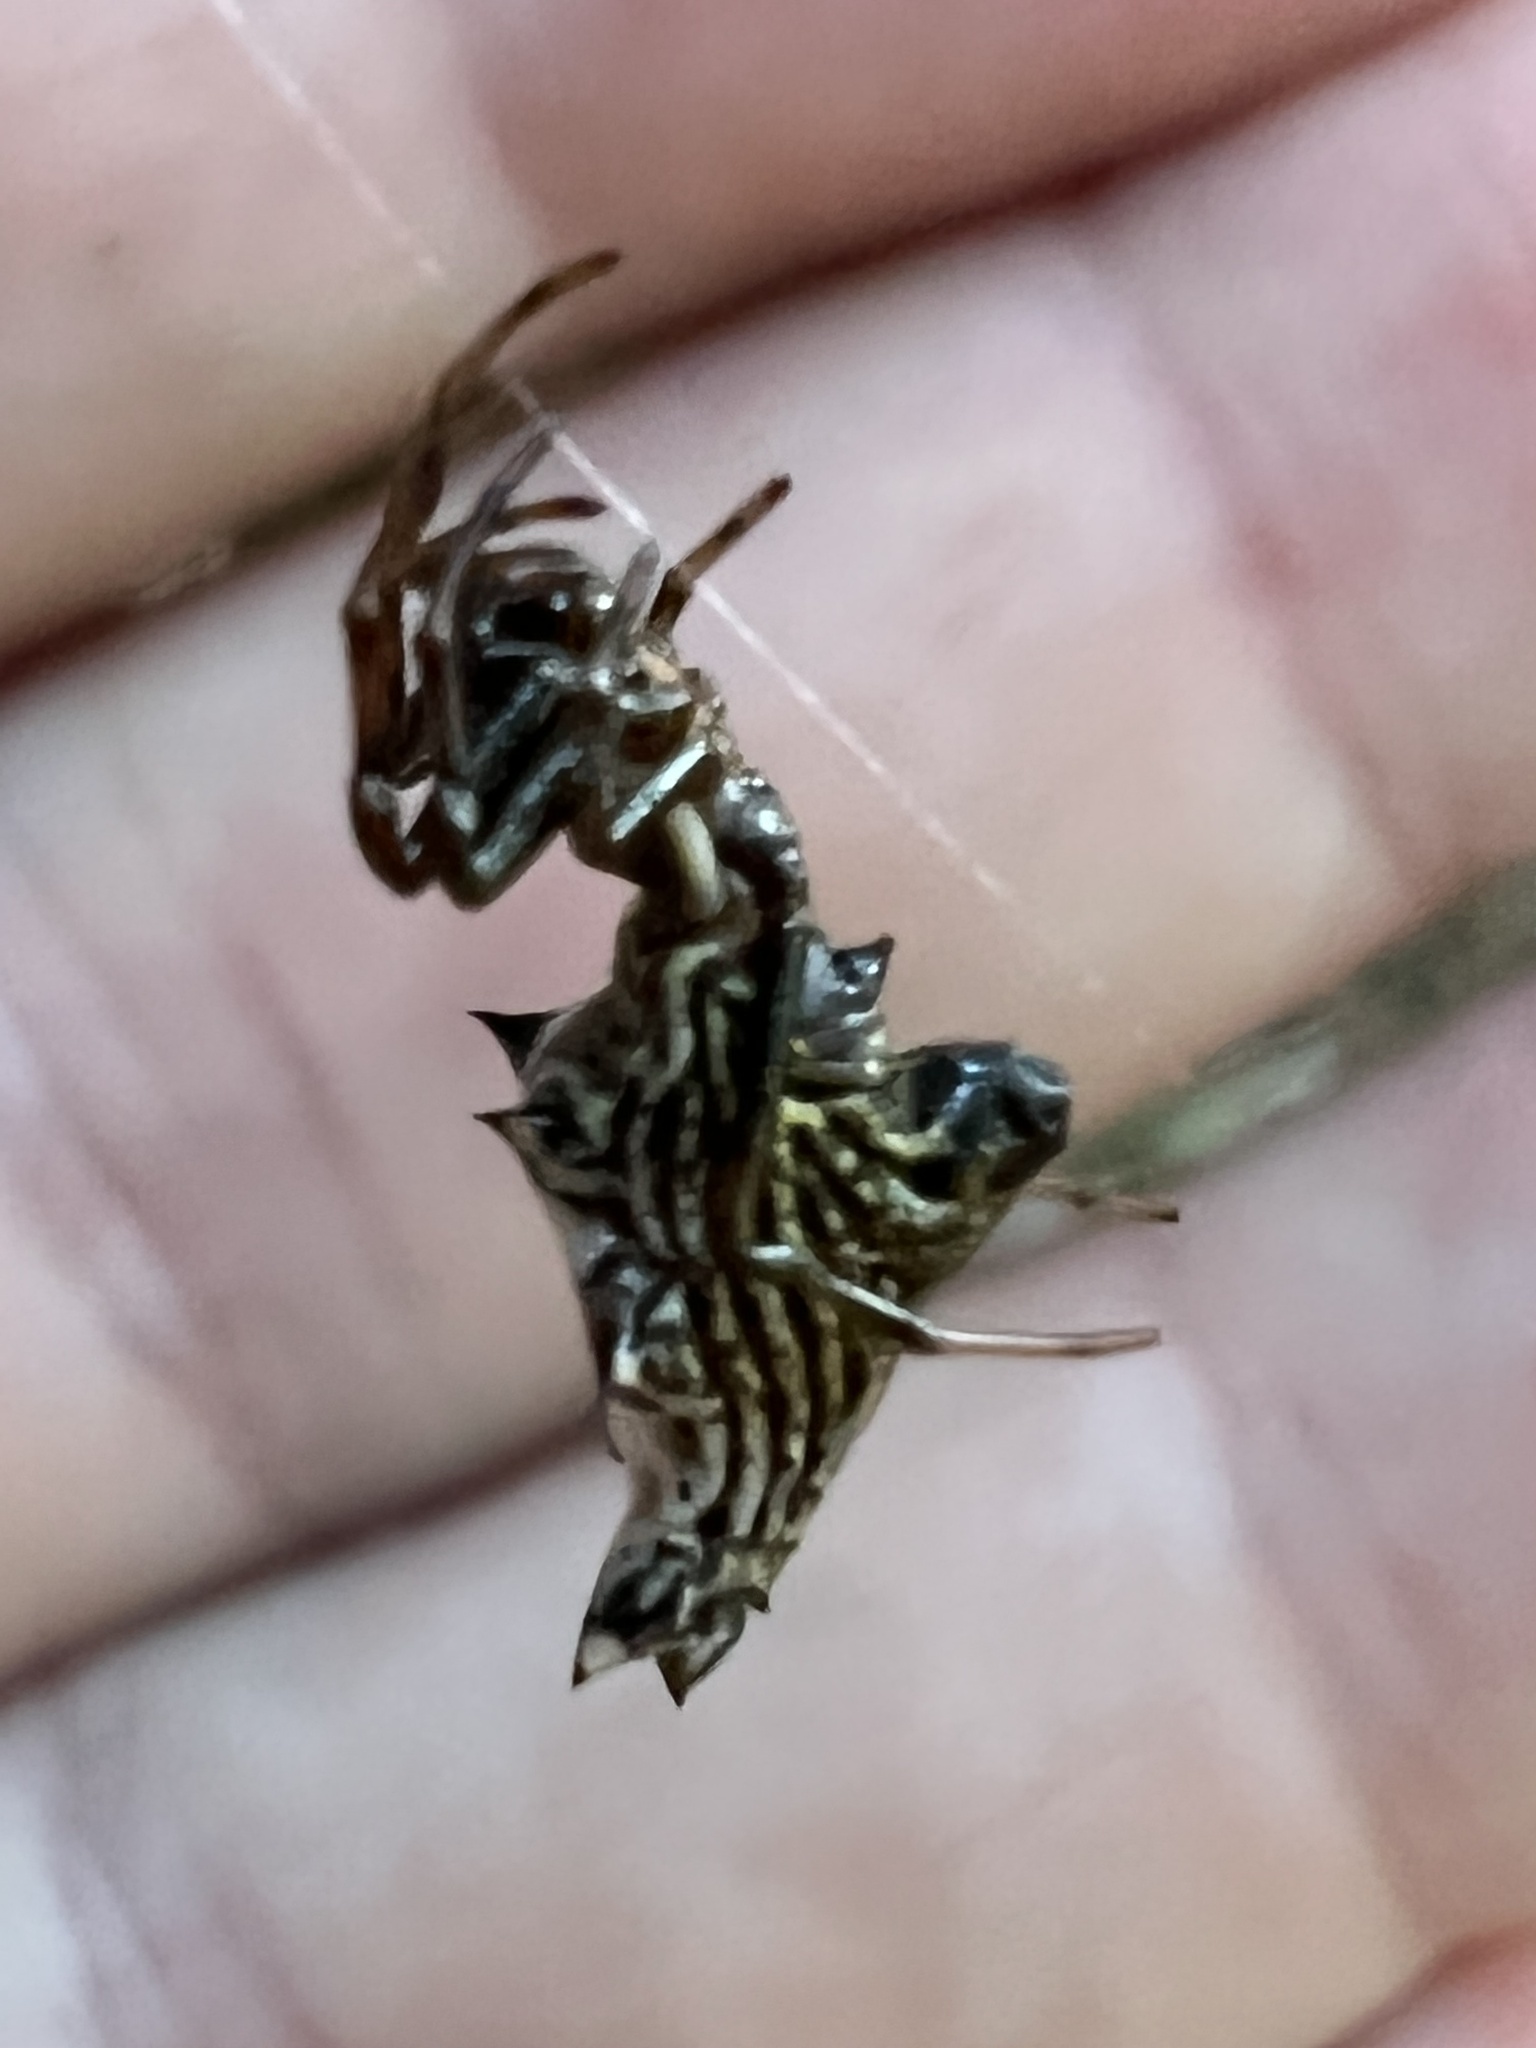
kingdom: Animalia
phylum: Arthropoda
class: Arachnida
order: Araneae
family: Araneidae
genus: Micrathena
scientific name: Micrathena gracilis
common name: Orb weavers
